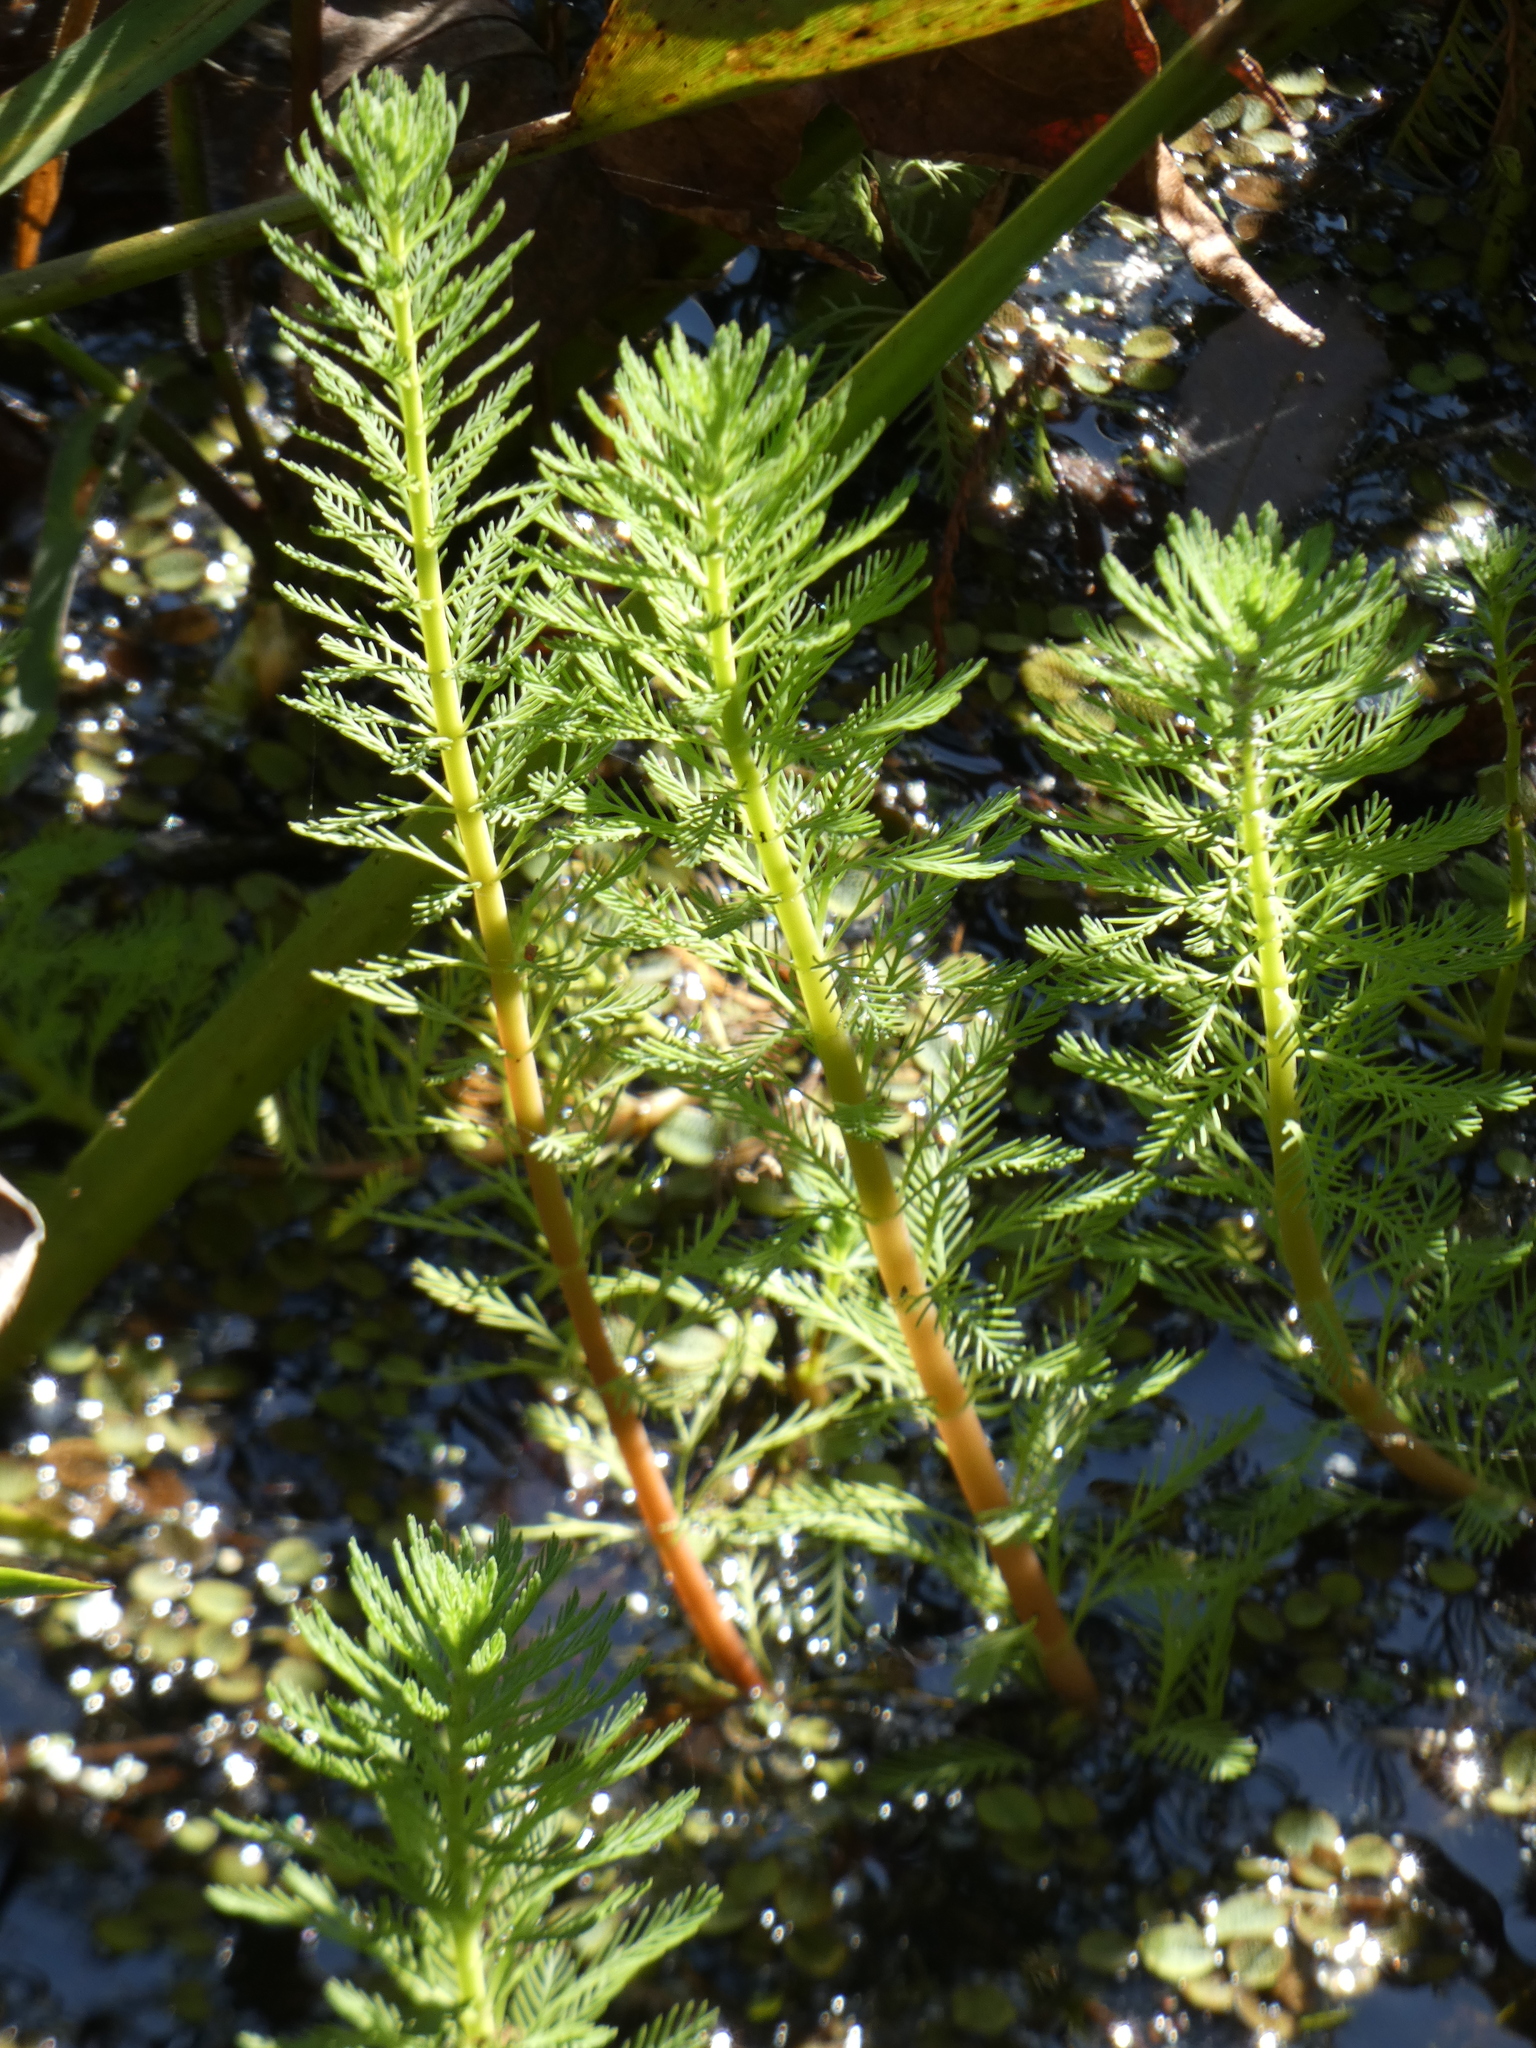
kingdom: Plantae
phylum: Tracheophyta
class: Magnoliopsida
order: Saxifragales
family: Haloragaceae
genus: Myriophyllum
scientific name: Myriophyllum aquaticum
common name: Parrot's feather
